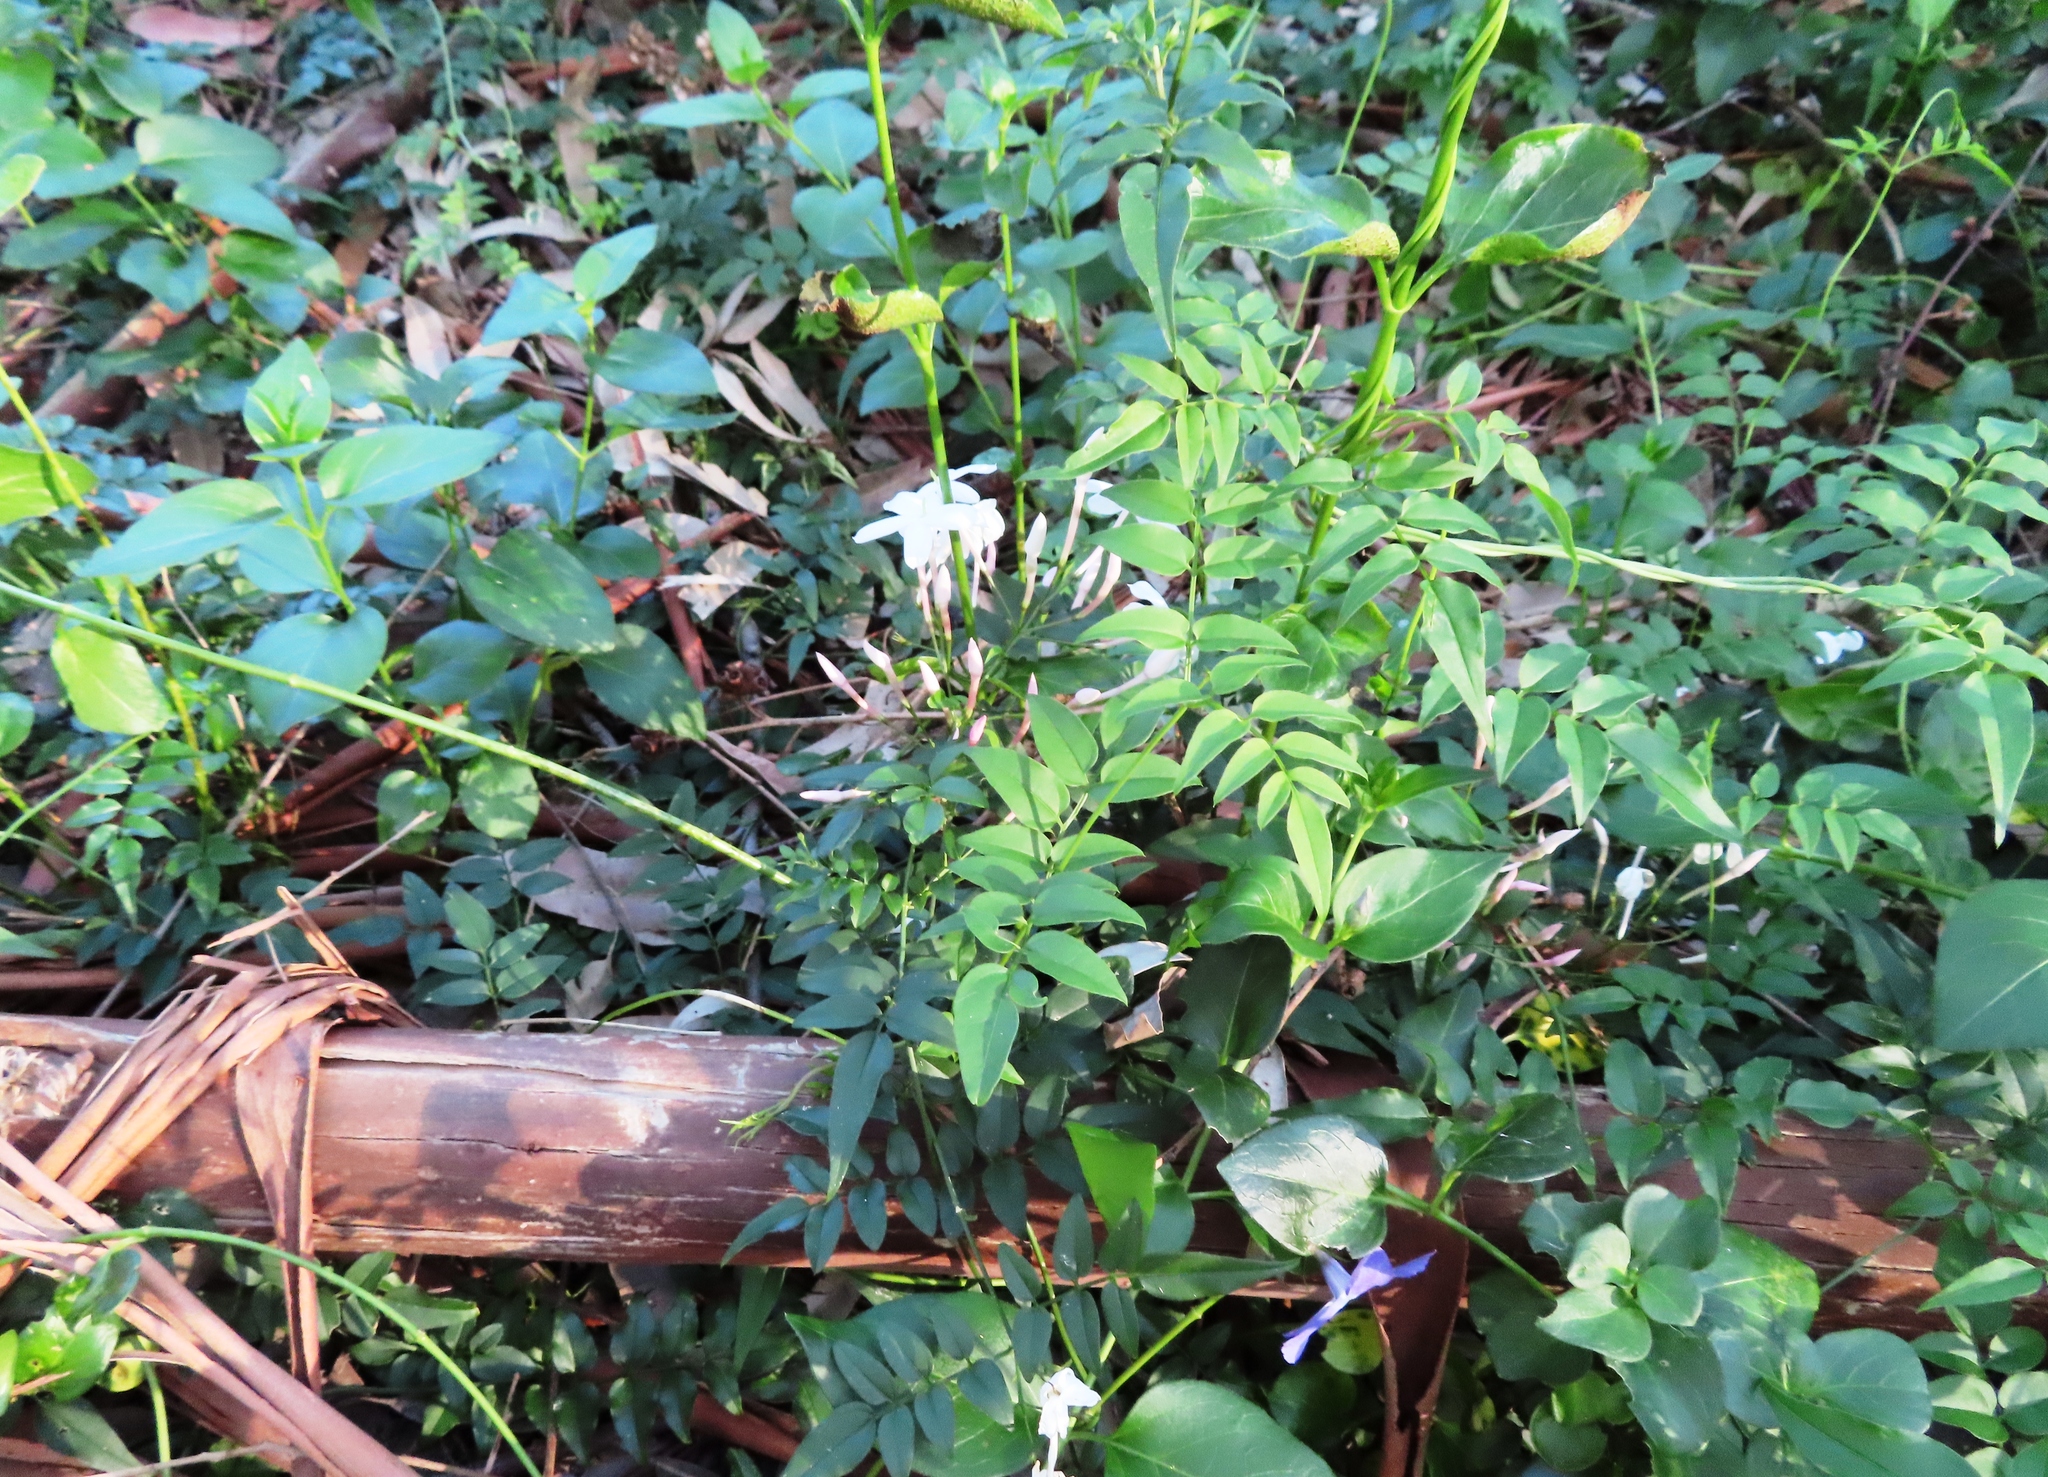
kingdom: Plantae
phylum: Tracheophyta
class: Magnoliopsida
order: Lamiales
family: Oleaceae
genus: Jasminum
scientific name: Jasminum polyanthum
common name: Pink jasmine
